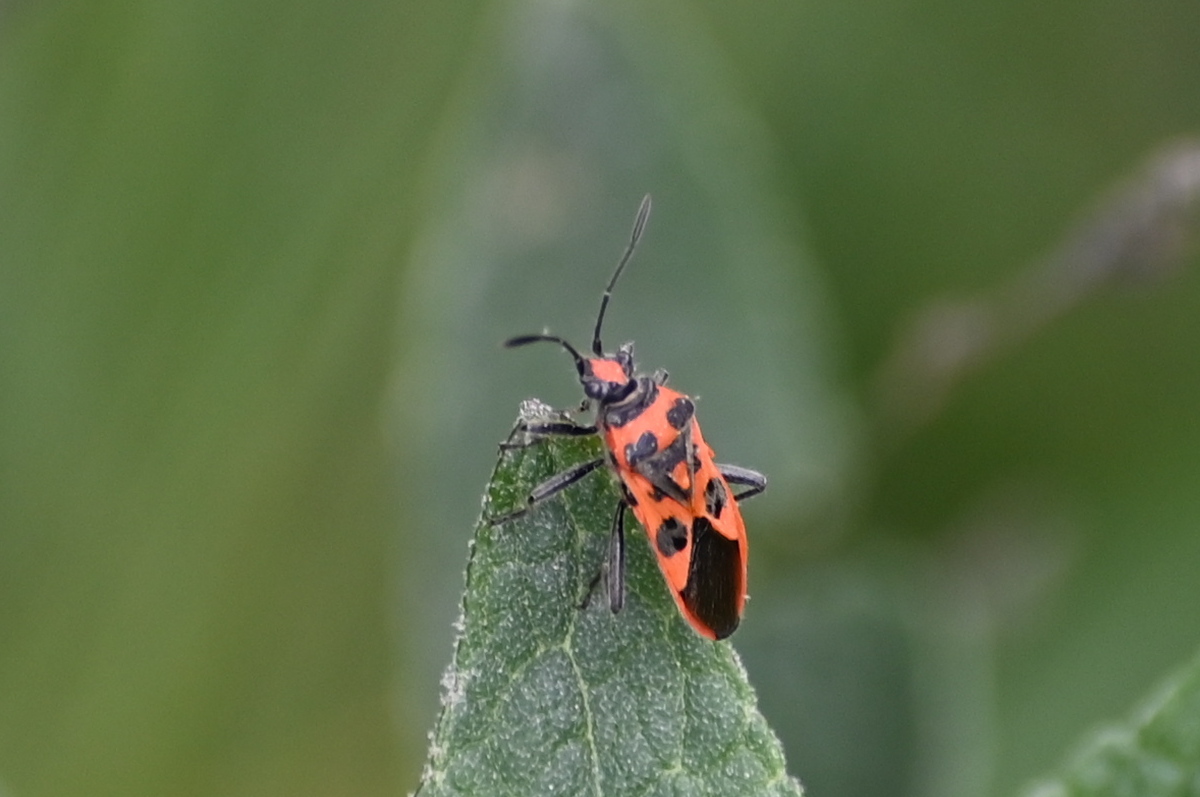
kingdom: Animalia
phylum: Arthropoda
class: Insecta
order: Hemiptera
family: Rhopalidae
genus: Corizus
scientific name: Corizus hyoscyami
